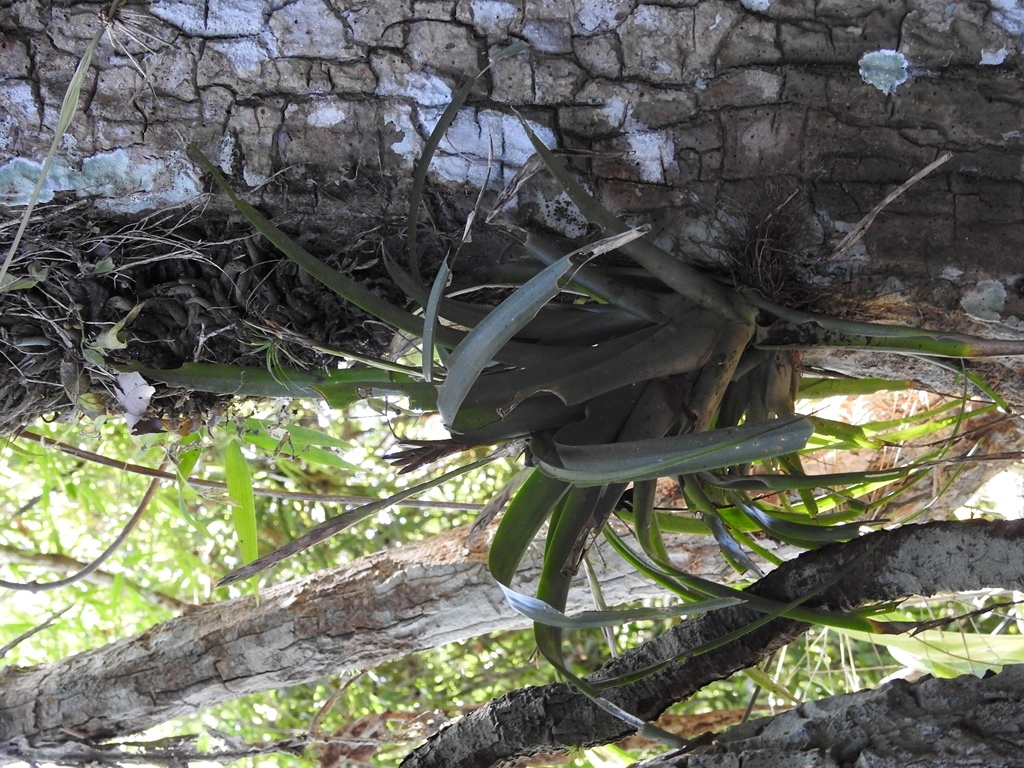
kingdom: Plantae
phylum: Tracheophyta
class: Liliopsida
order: Poales
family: Bromeliaceae
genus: Tillandsia
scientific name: Tillandsia flabellata
